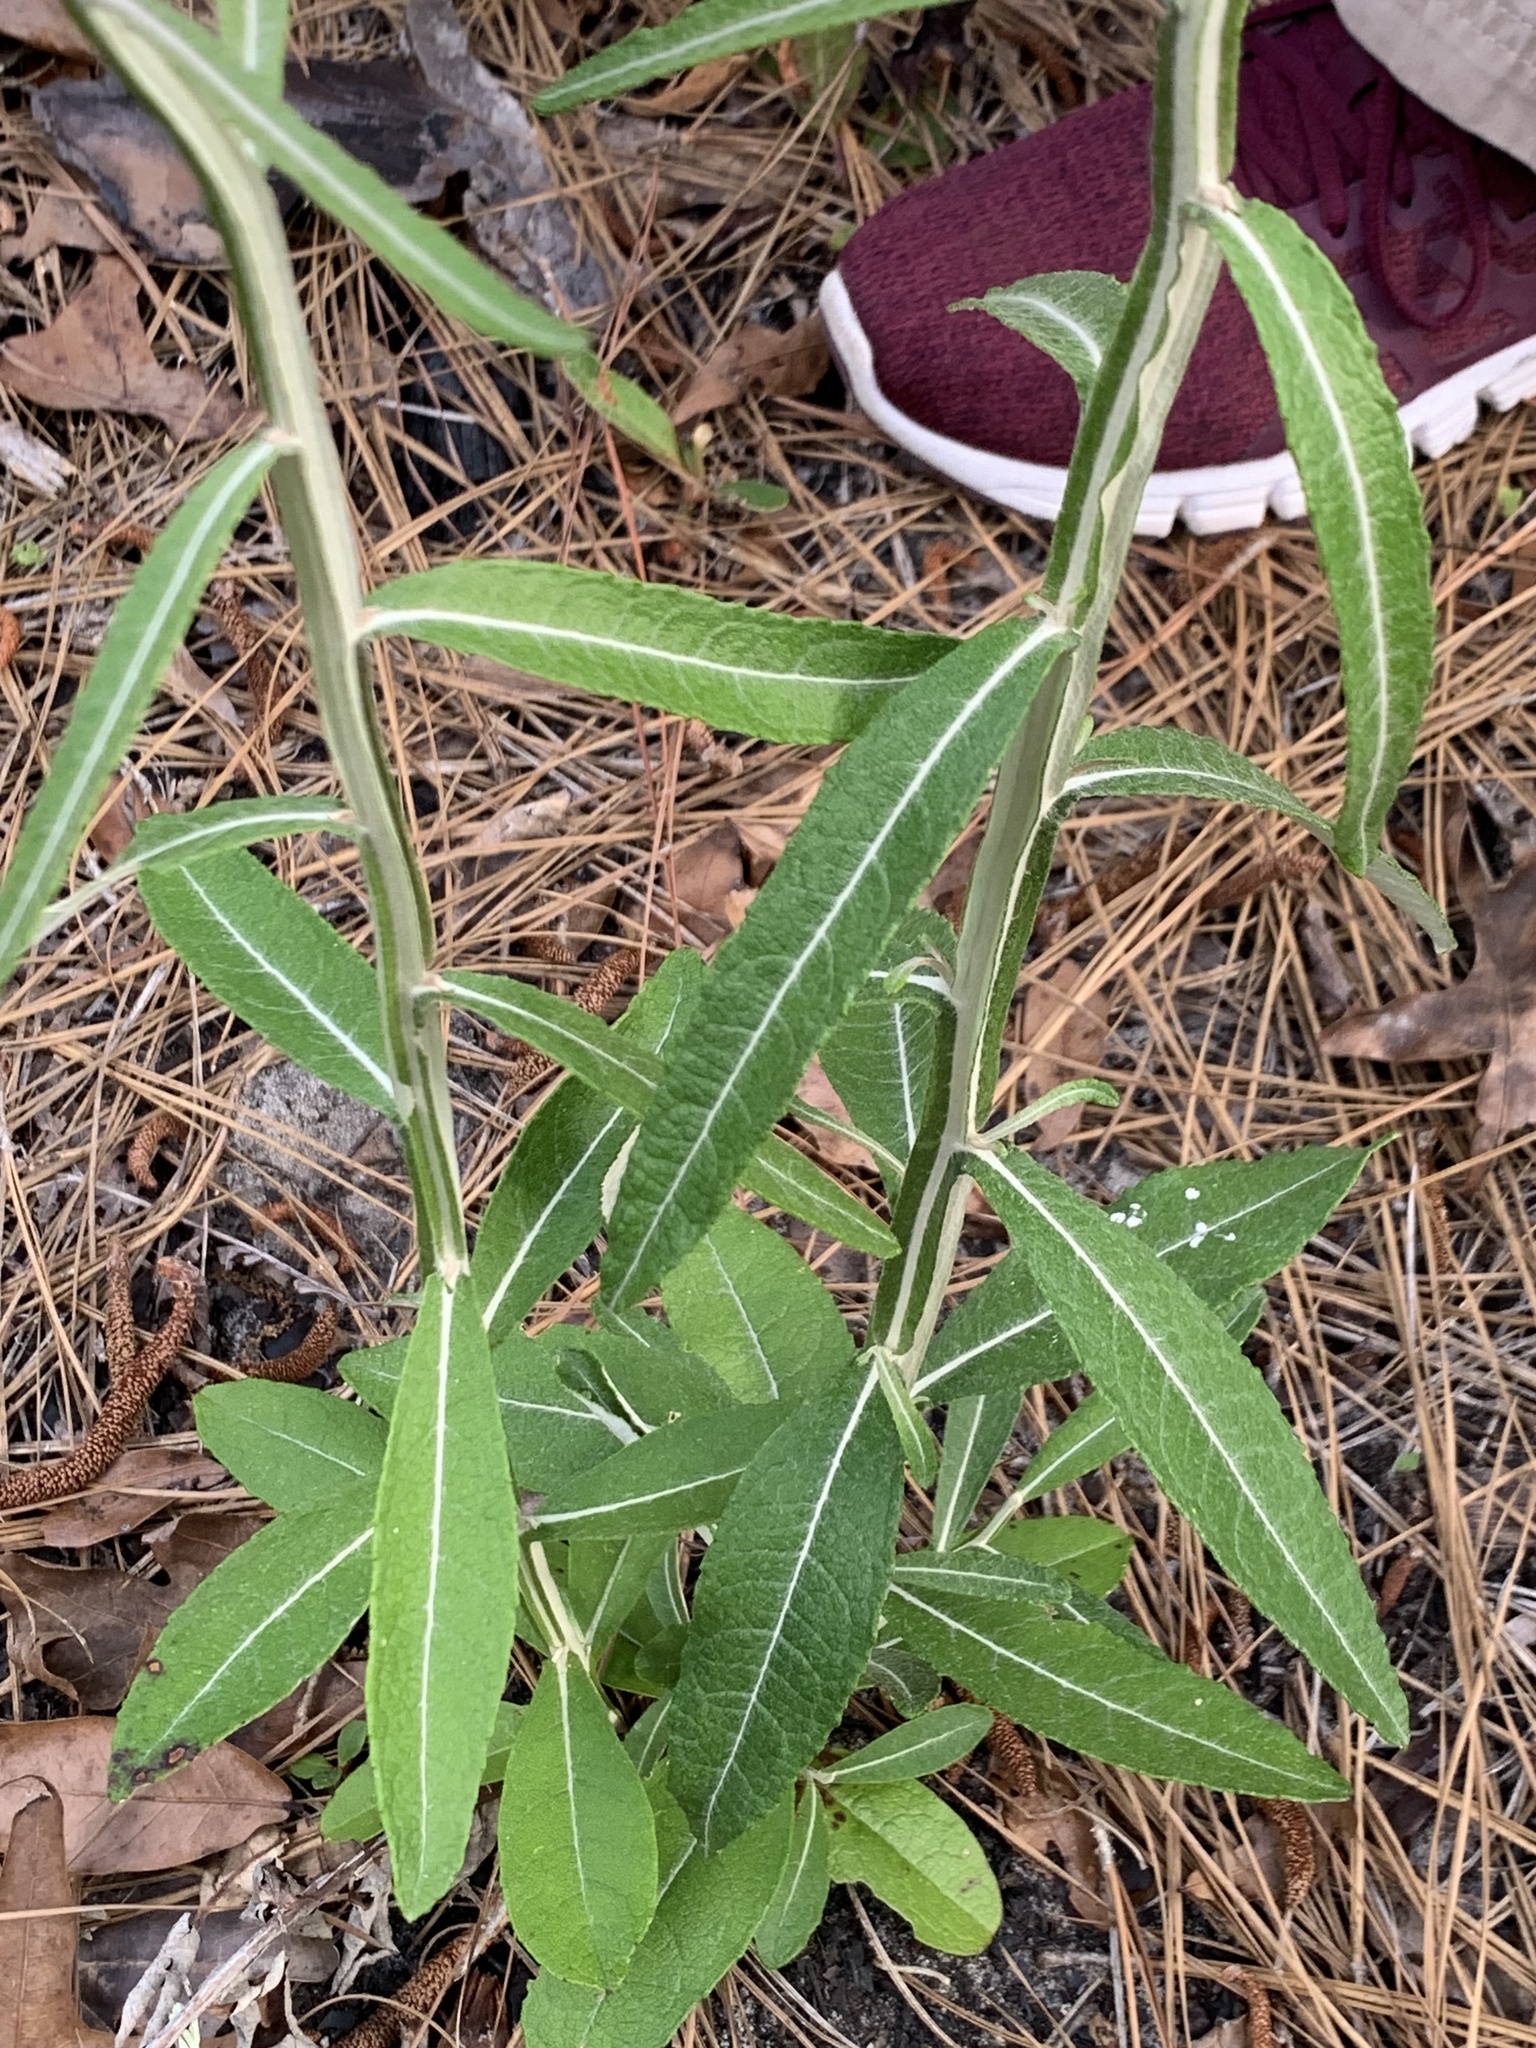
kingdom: Plantae
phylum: Tracheophyta
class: Magnoliopsida
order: Asterales
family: Asteraceae
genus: Pterocaulon
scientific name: Pterocaulon pycnostachyum
